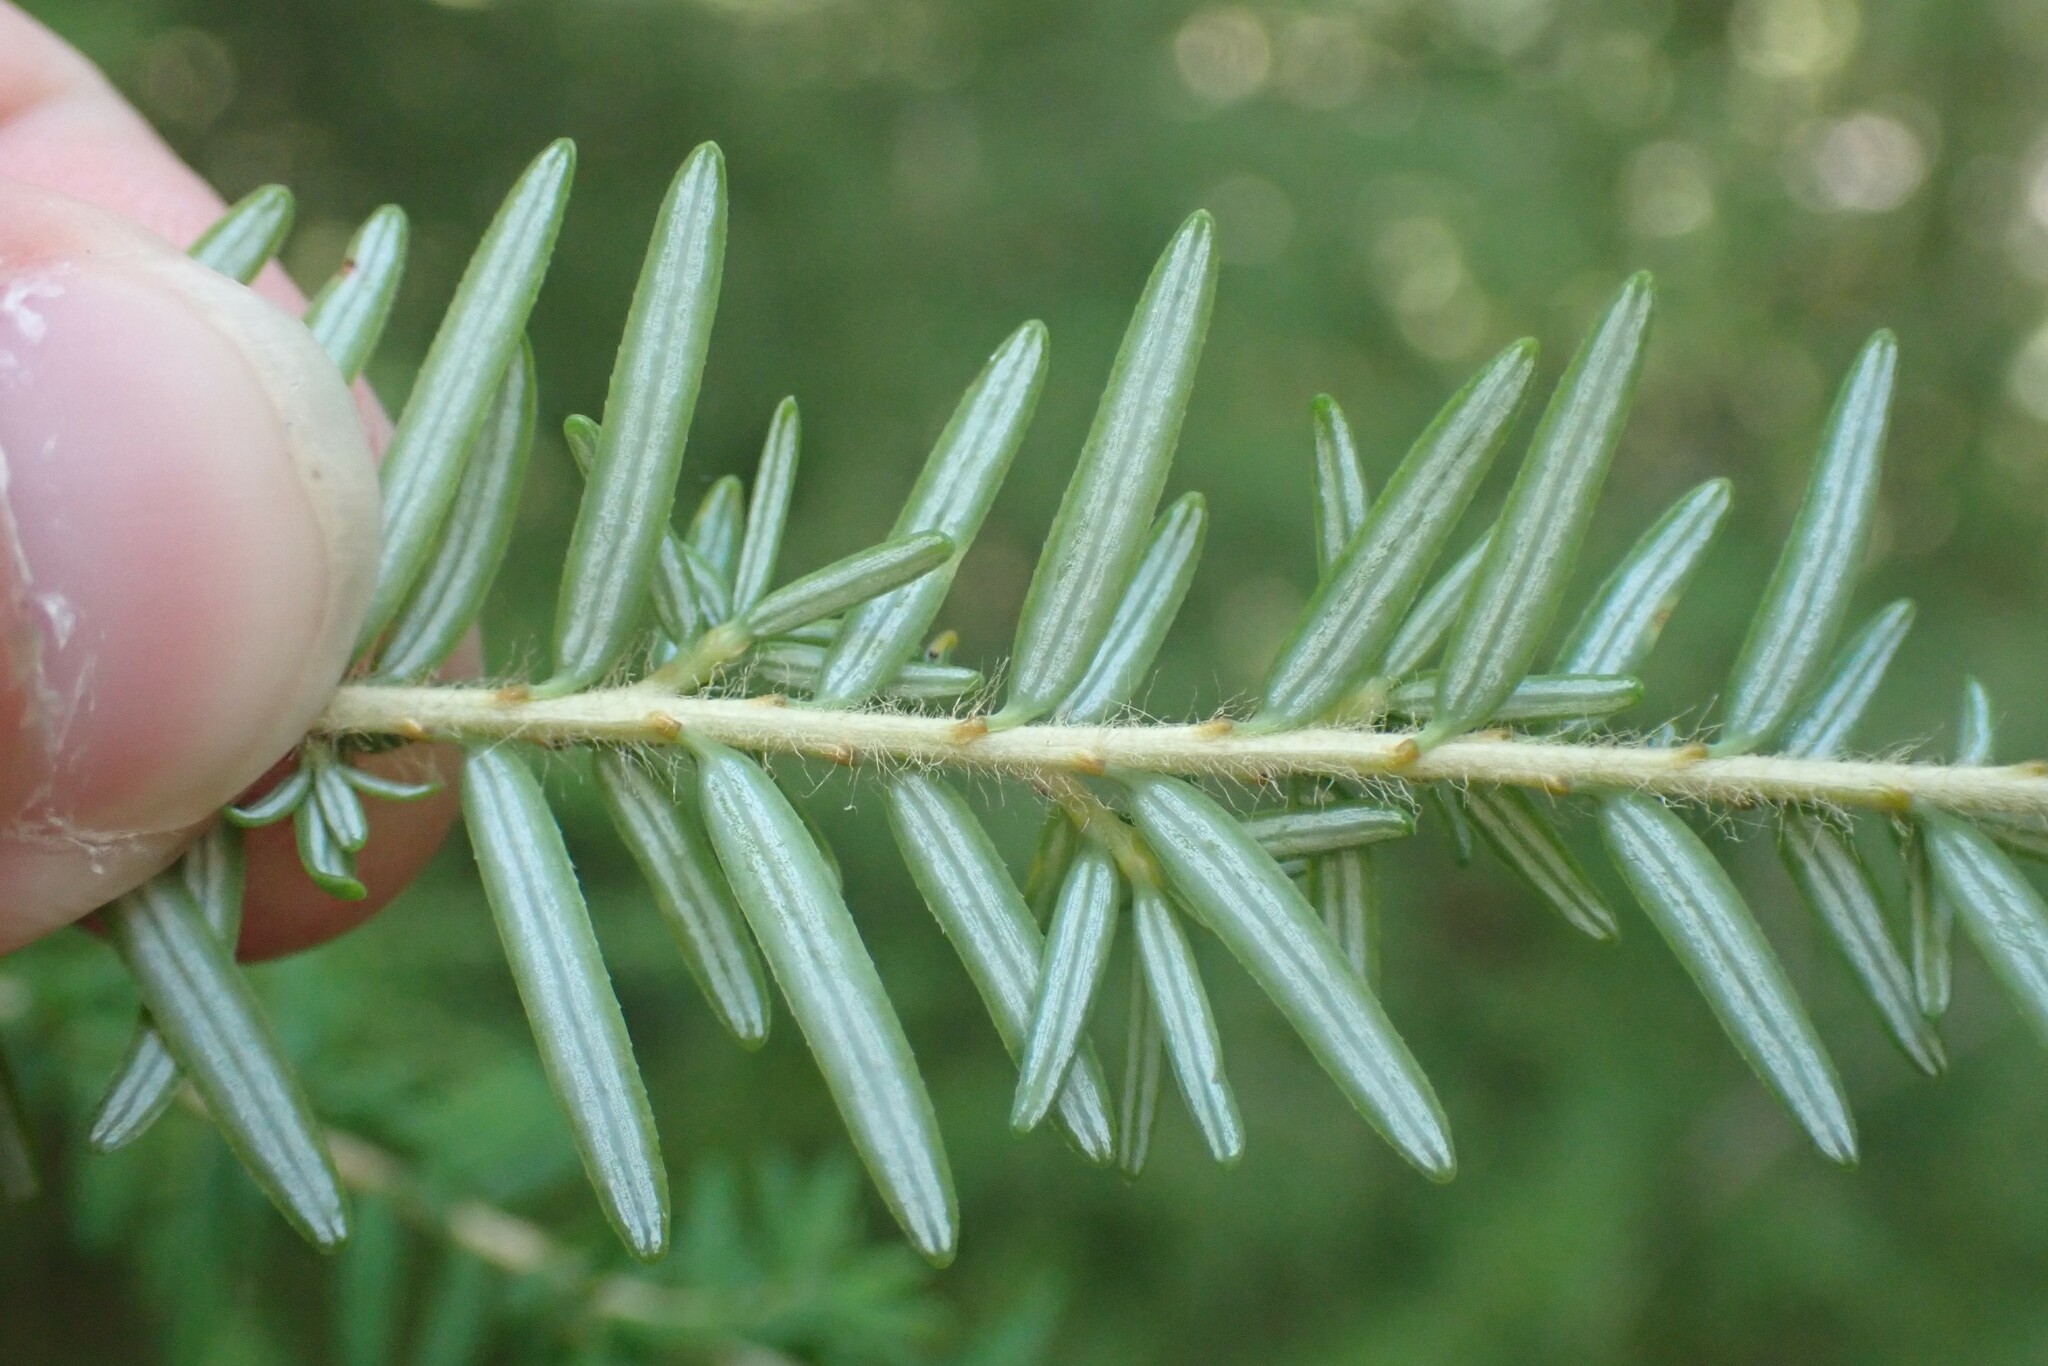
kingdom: Plantae
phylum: Tracheophyta
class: Pinopsida
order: Pinales
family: Pinaceae
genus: Tsuga
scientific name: Tsuga heterophylla
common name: Western hemlock
